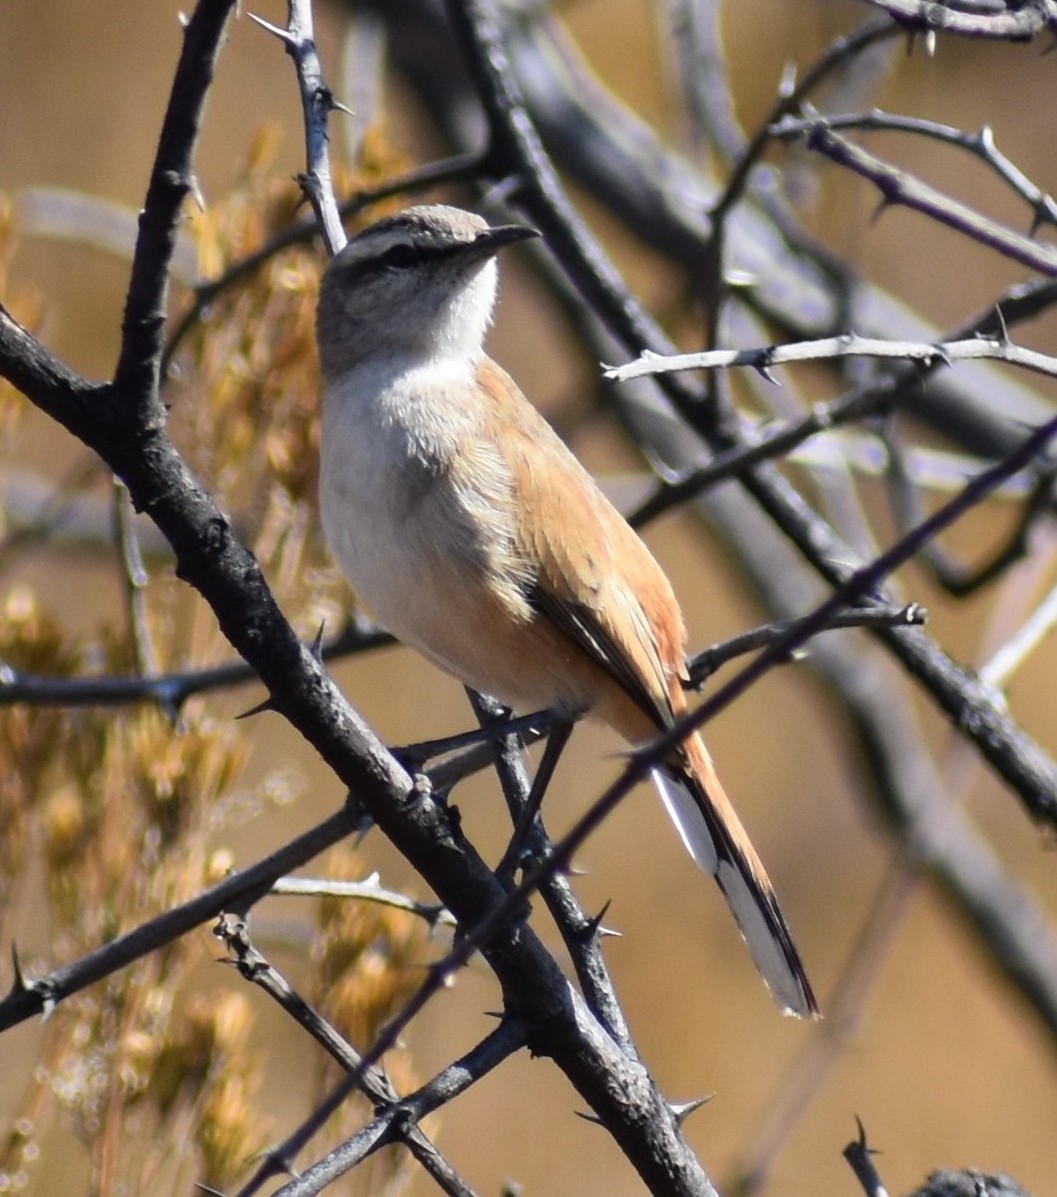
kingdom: Animalia
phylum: Chordata
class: Aves
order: Passeriformes
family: Muscicapidae
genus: Erythropygia
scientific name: Erythropygia paena
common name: Kalahari scrub robin
